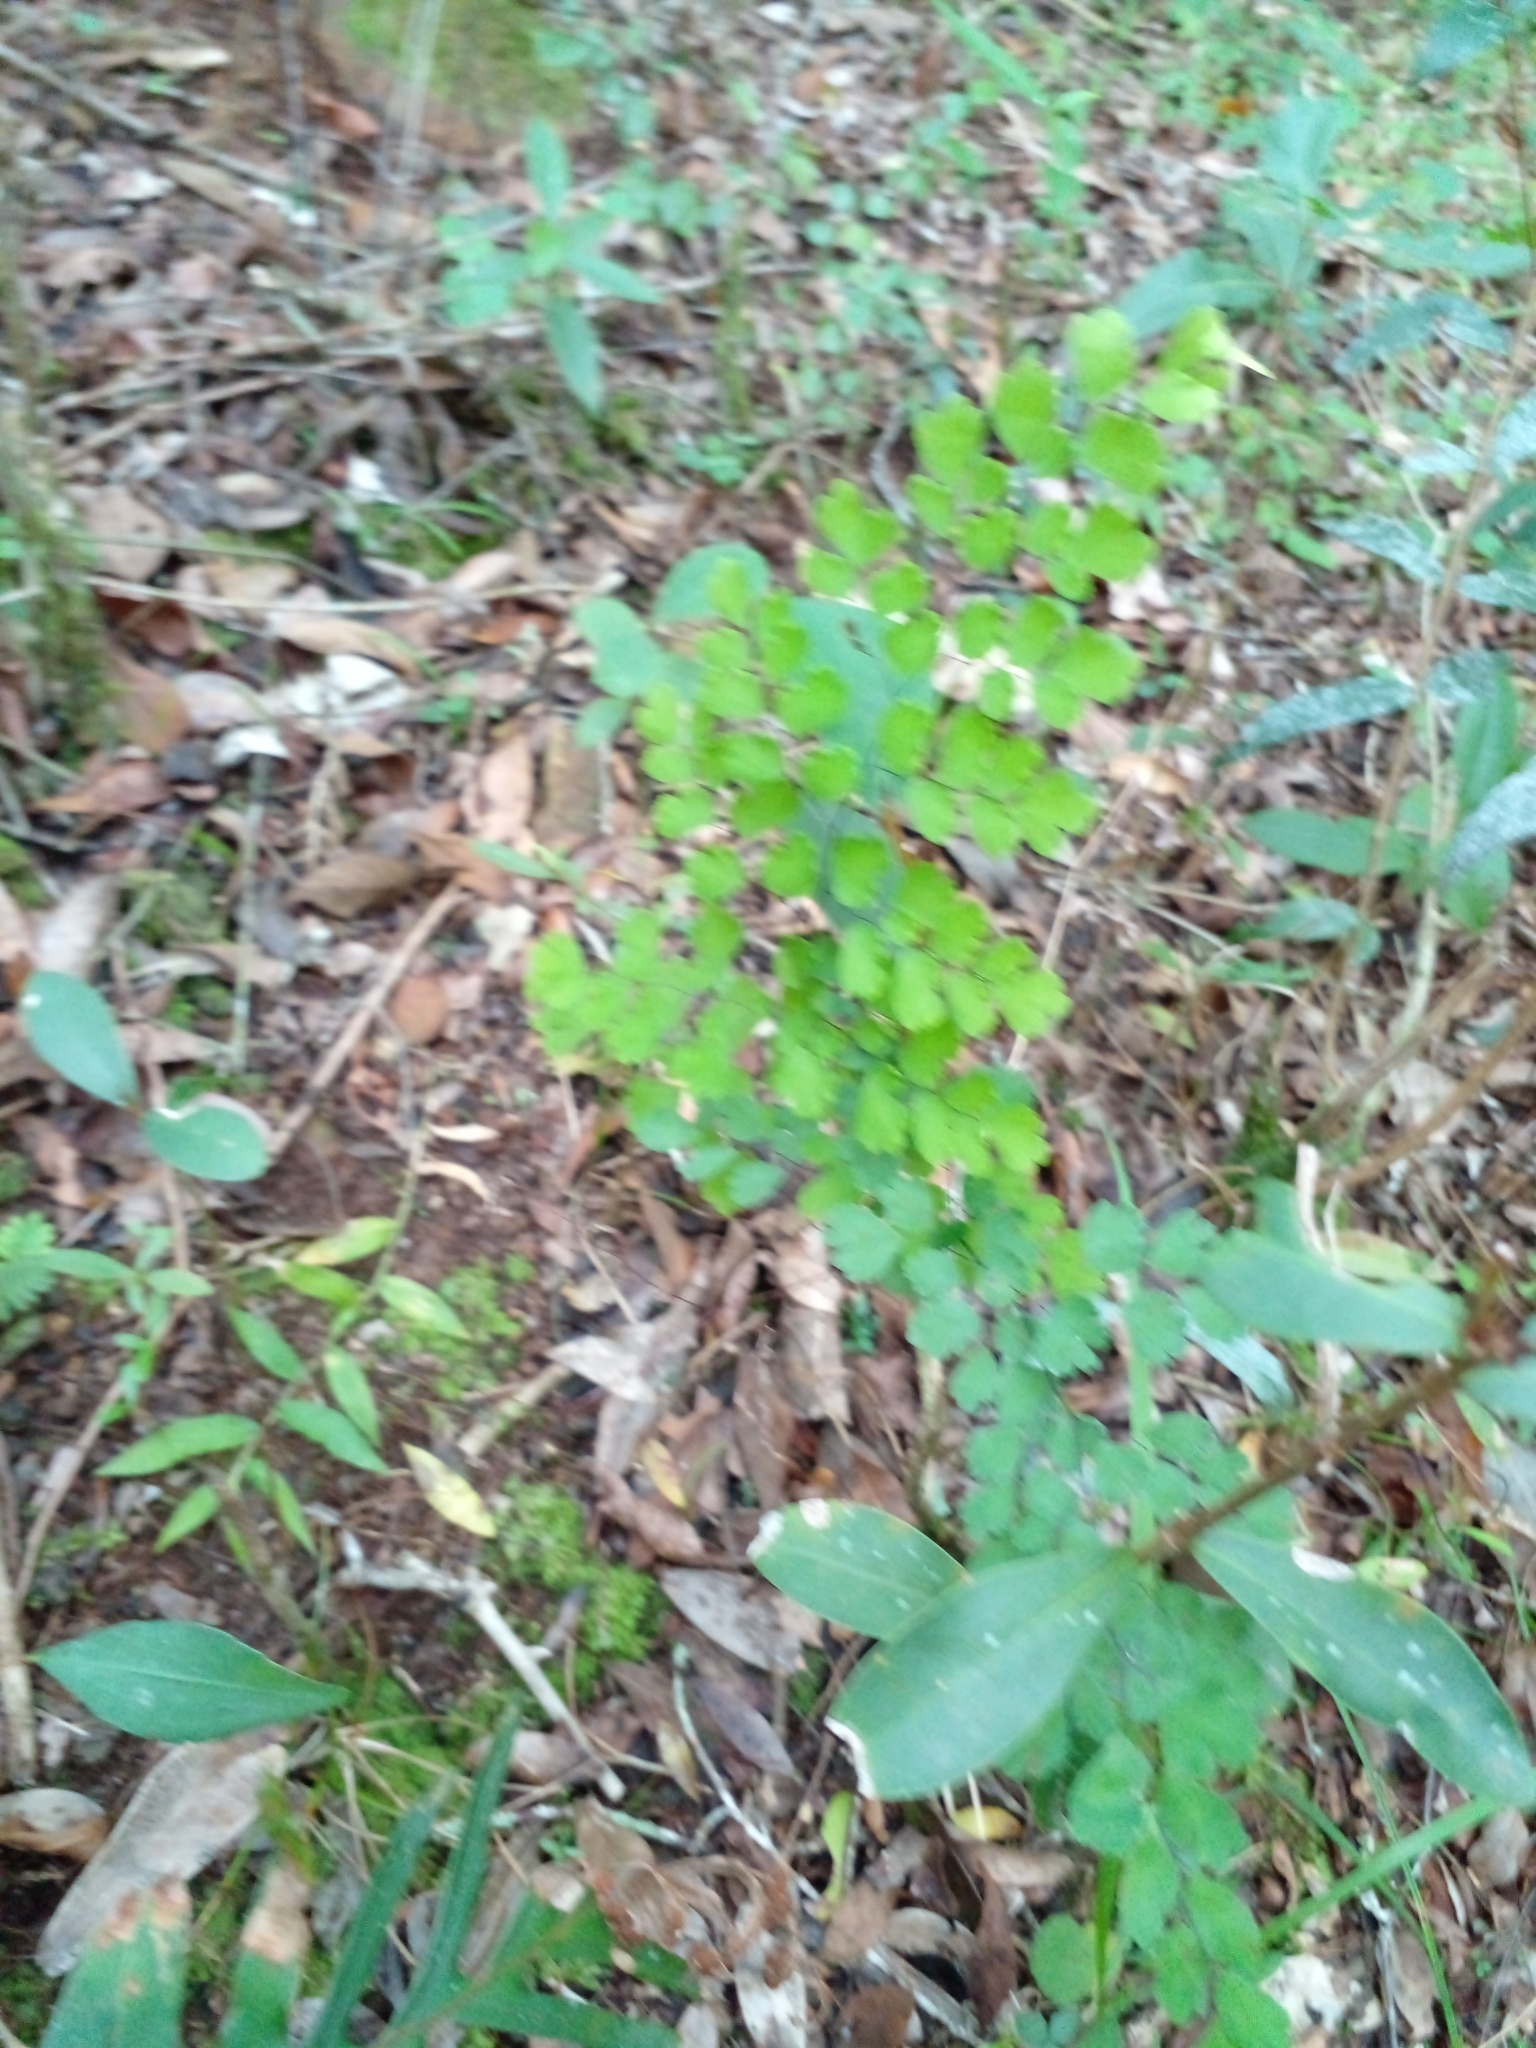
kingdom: Plantae
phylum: Tracheophyta
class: Polypodiopsida
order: Polypodiales
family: Pteridaceae
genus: Adiantum
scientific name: Adiantum raddianum
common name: Delta maidenhair fern
